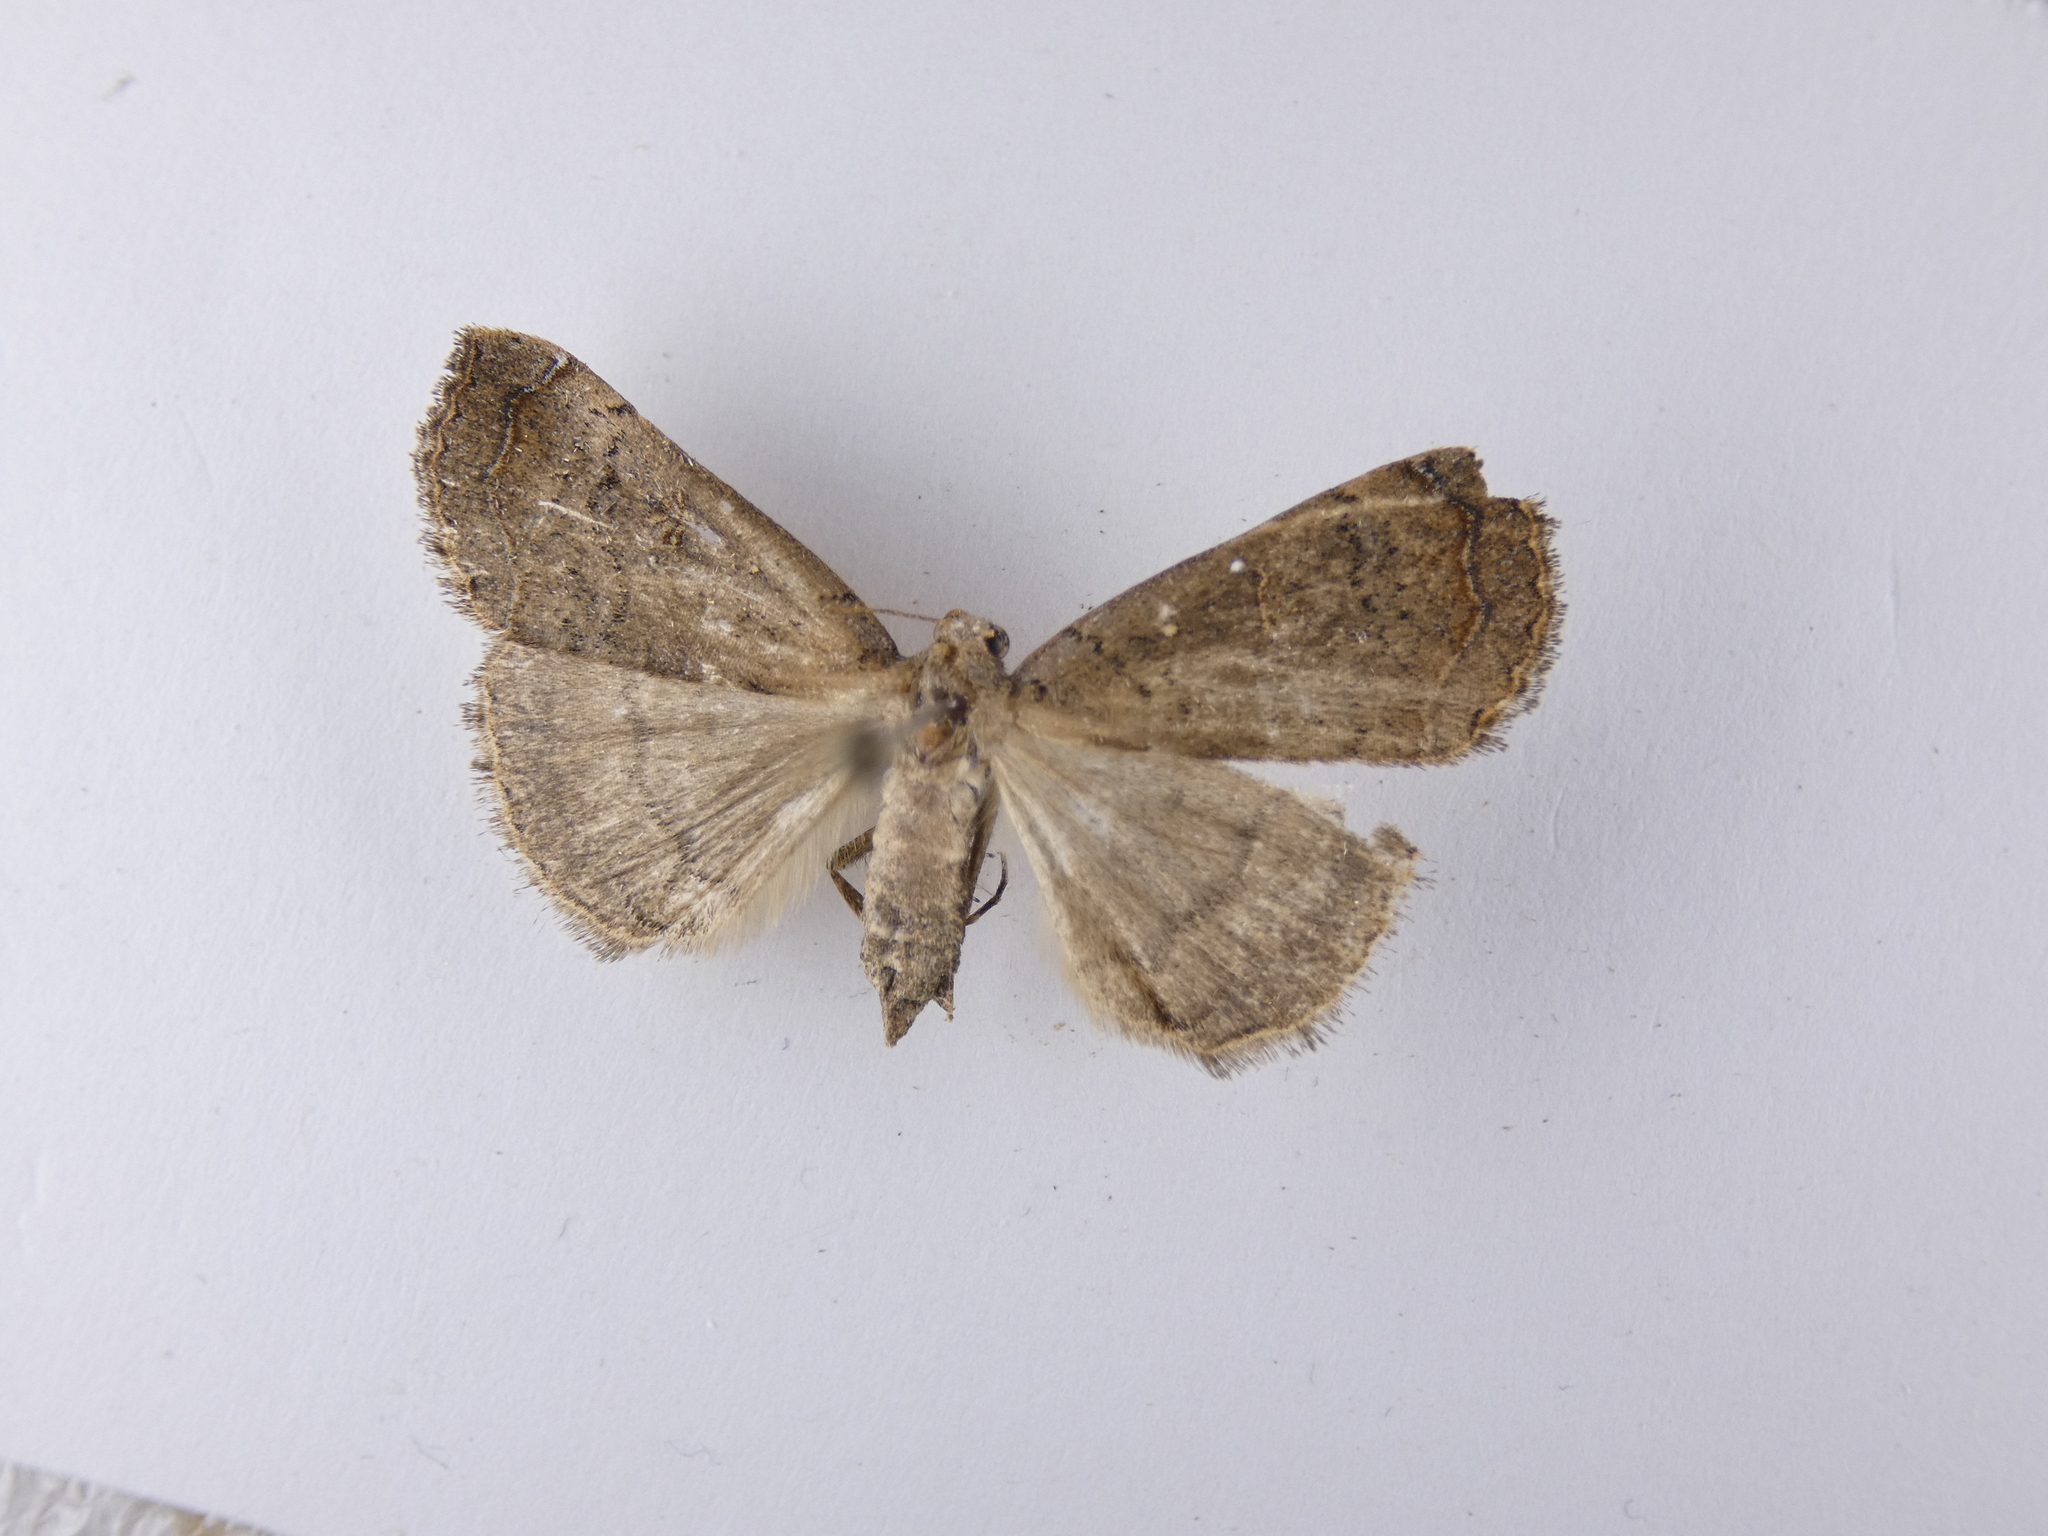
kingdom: Animalia
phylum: Arthropoda
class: Insecta
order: Lepidoptera
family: Erebidae
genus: Rhapsa
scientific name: Rhapsa scotosialis
